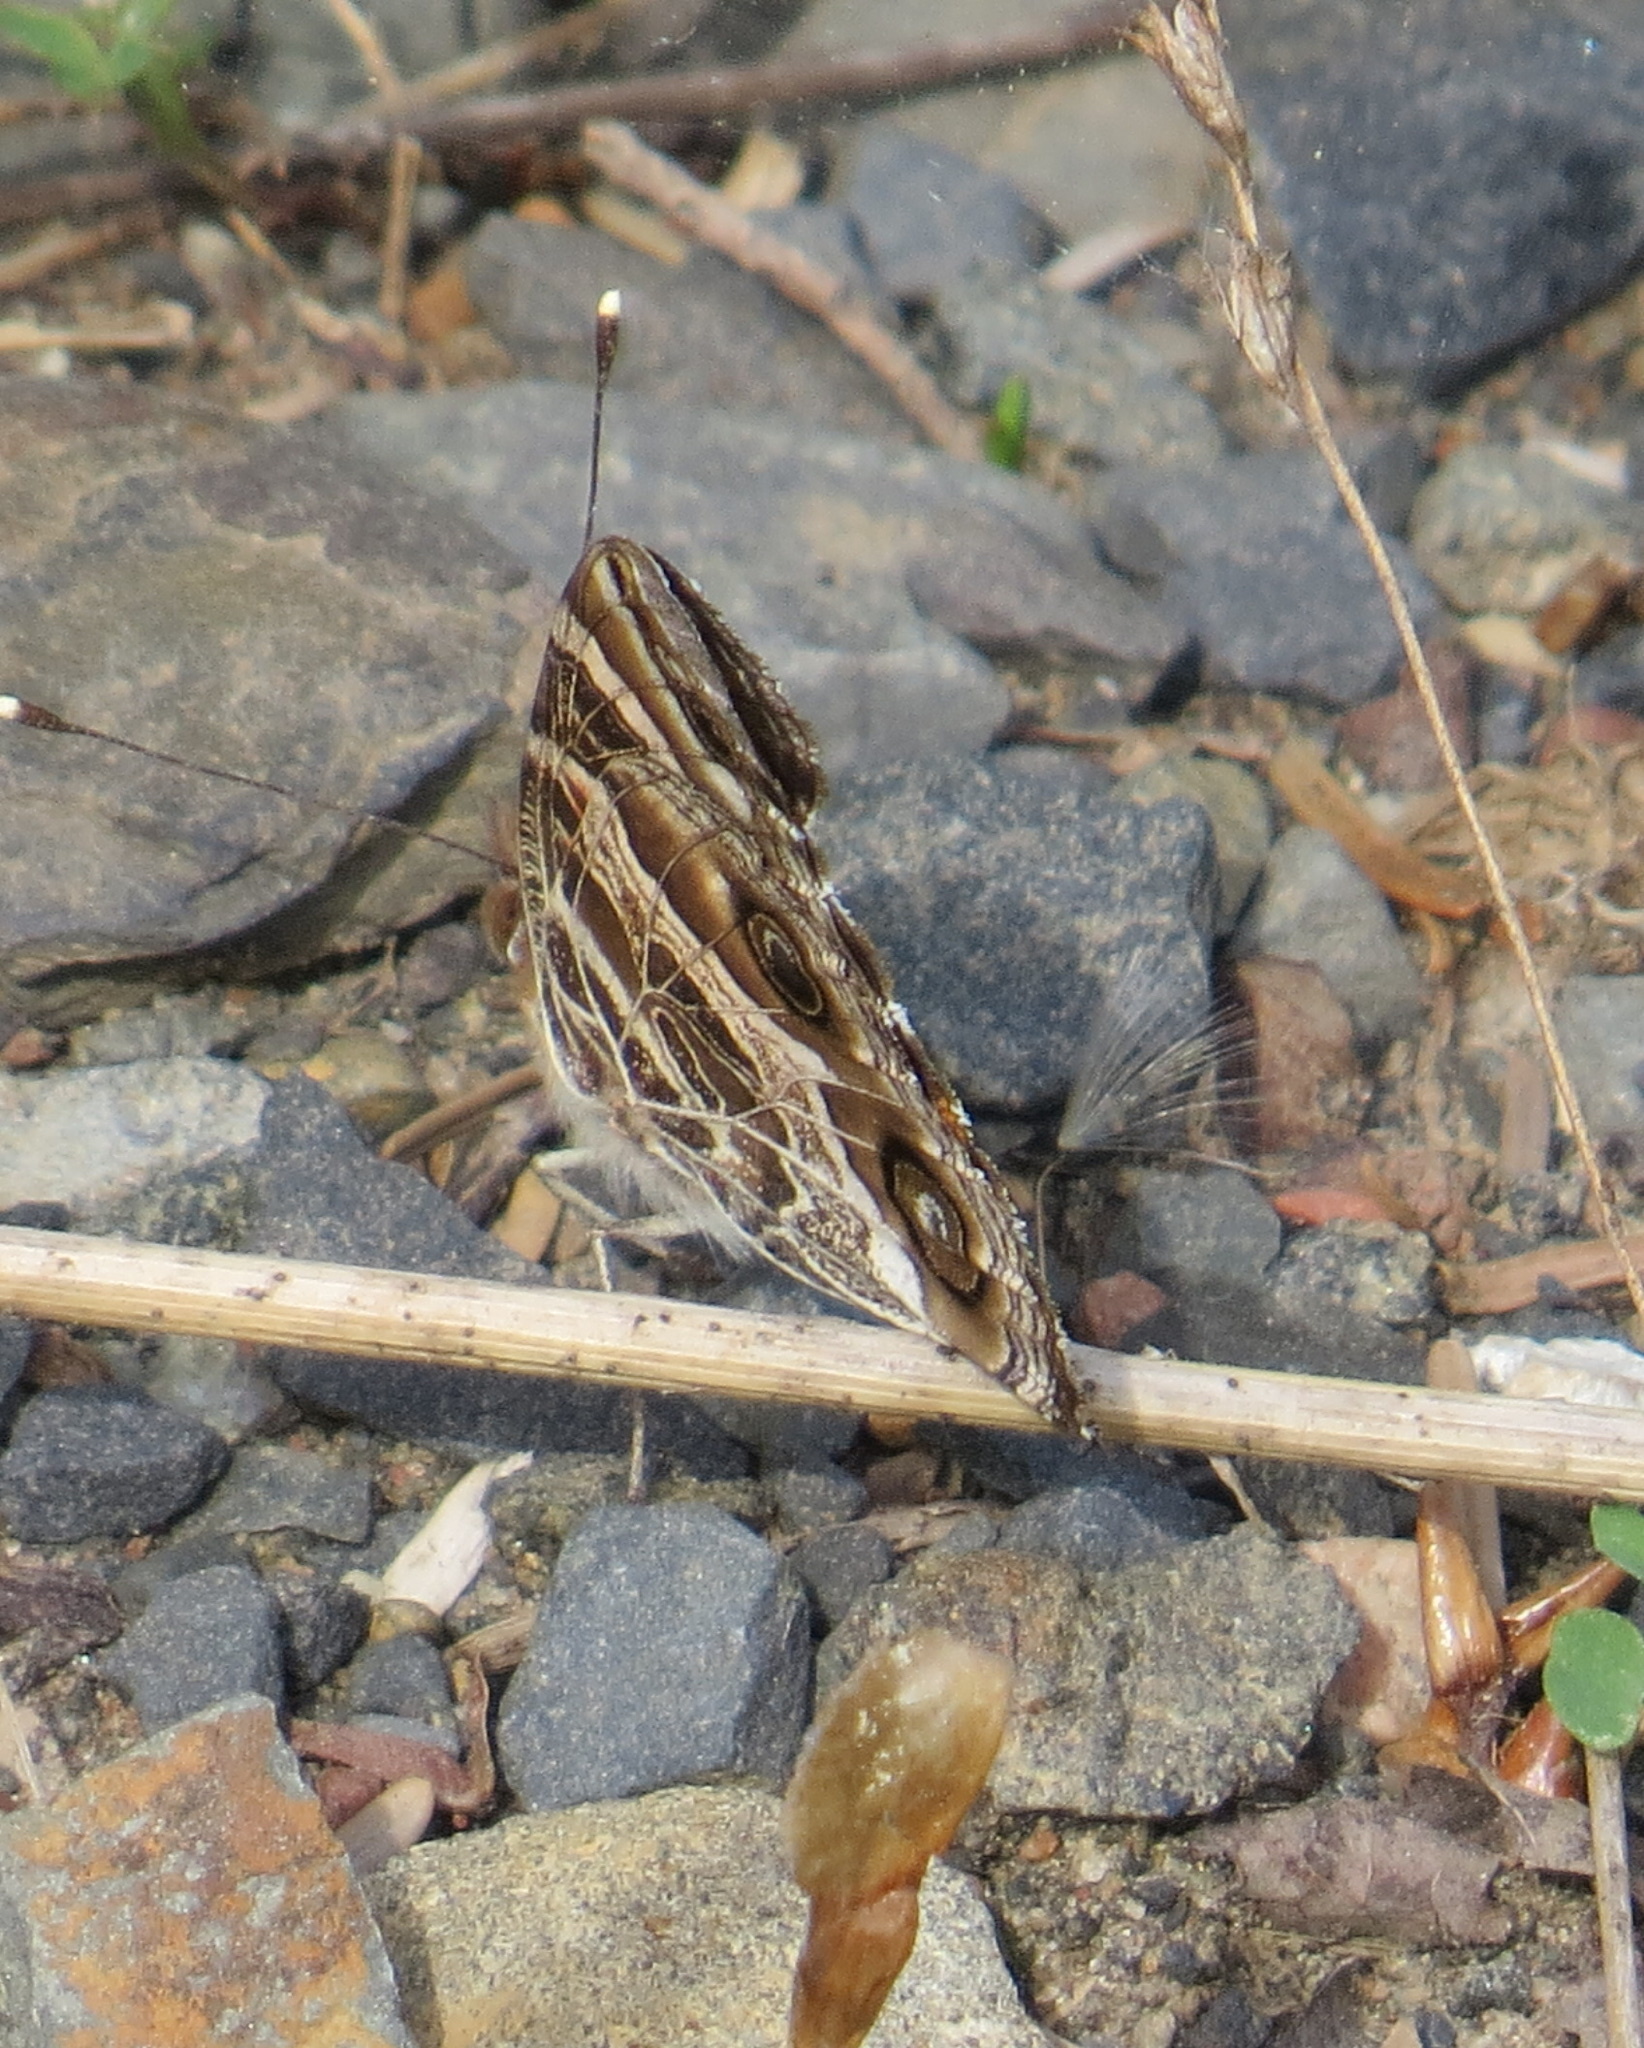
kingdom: Animalia
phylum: Arthropoda
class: Insecta
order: Lepidoptera
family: Nymphalidae
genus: Vanessa
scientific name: Vanessa virginiensis
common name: American lady
